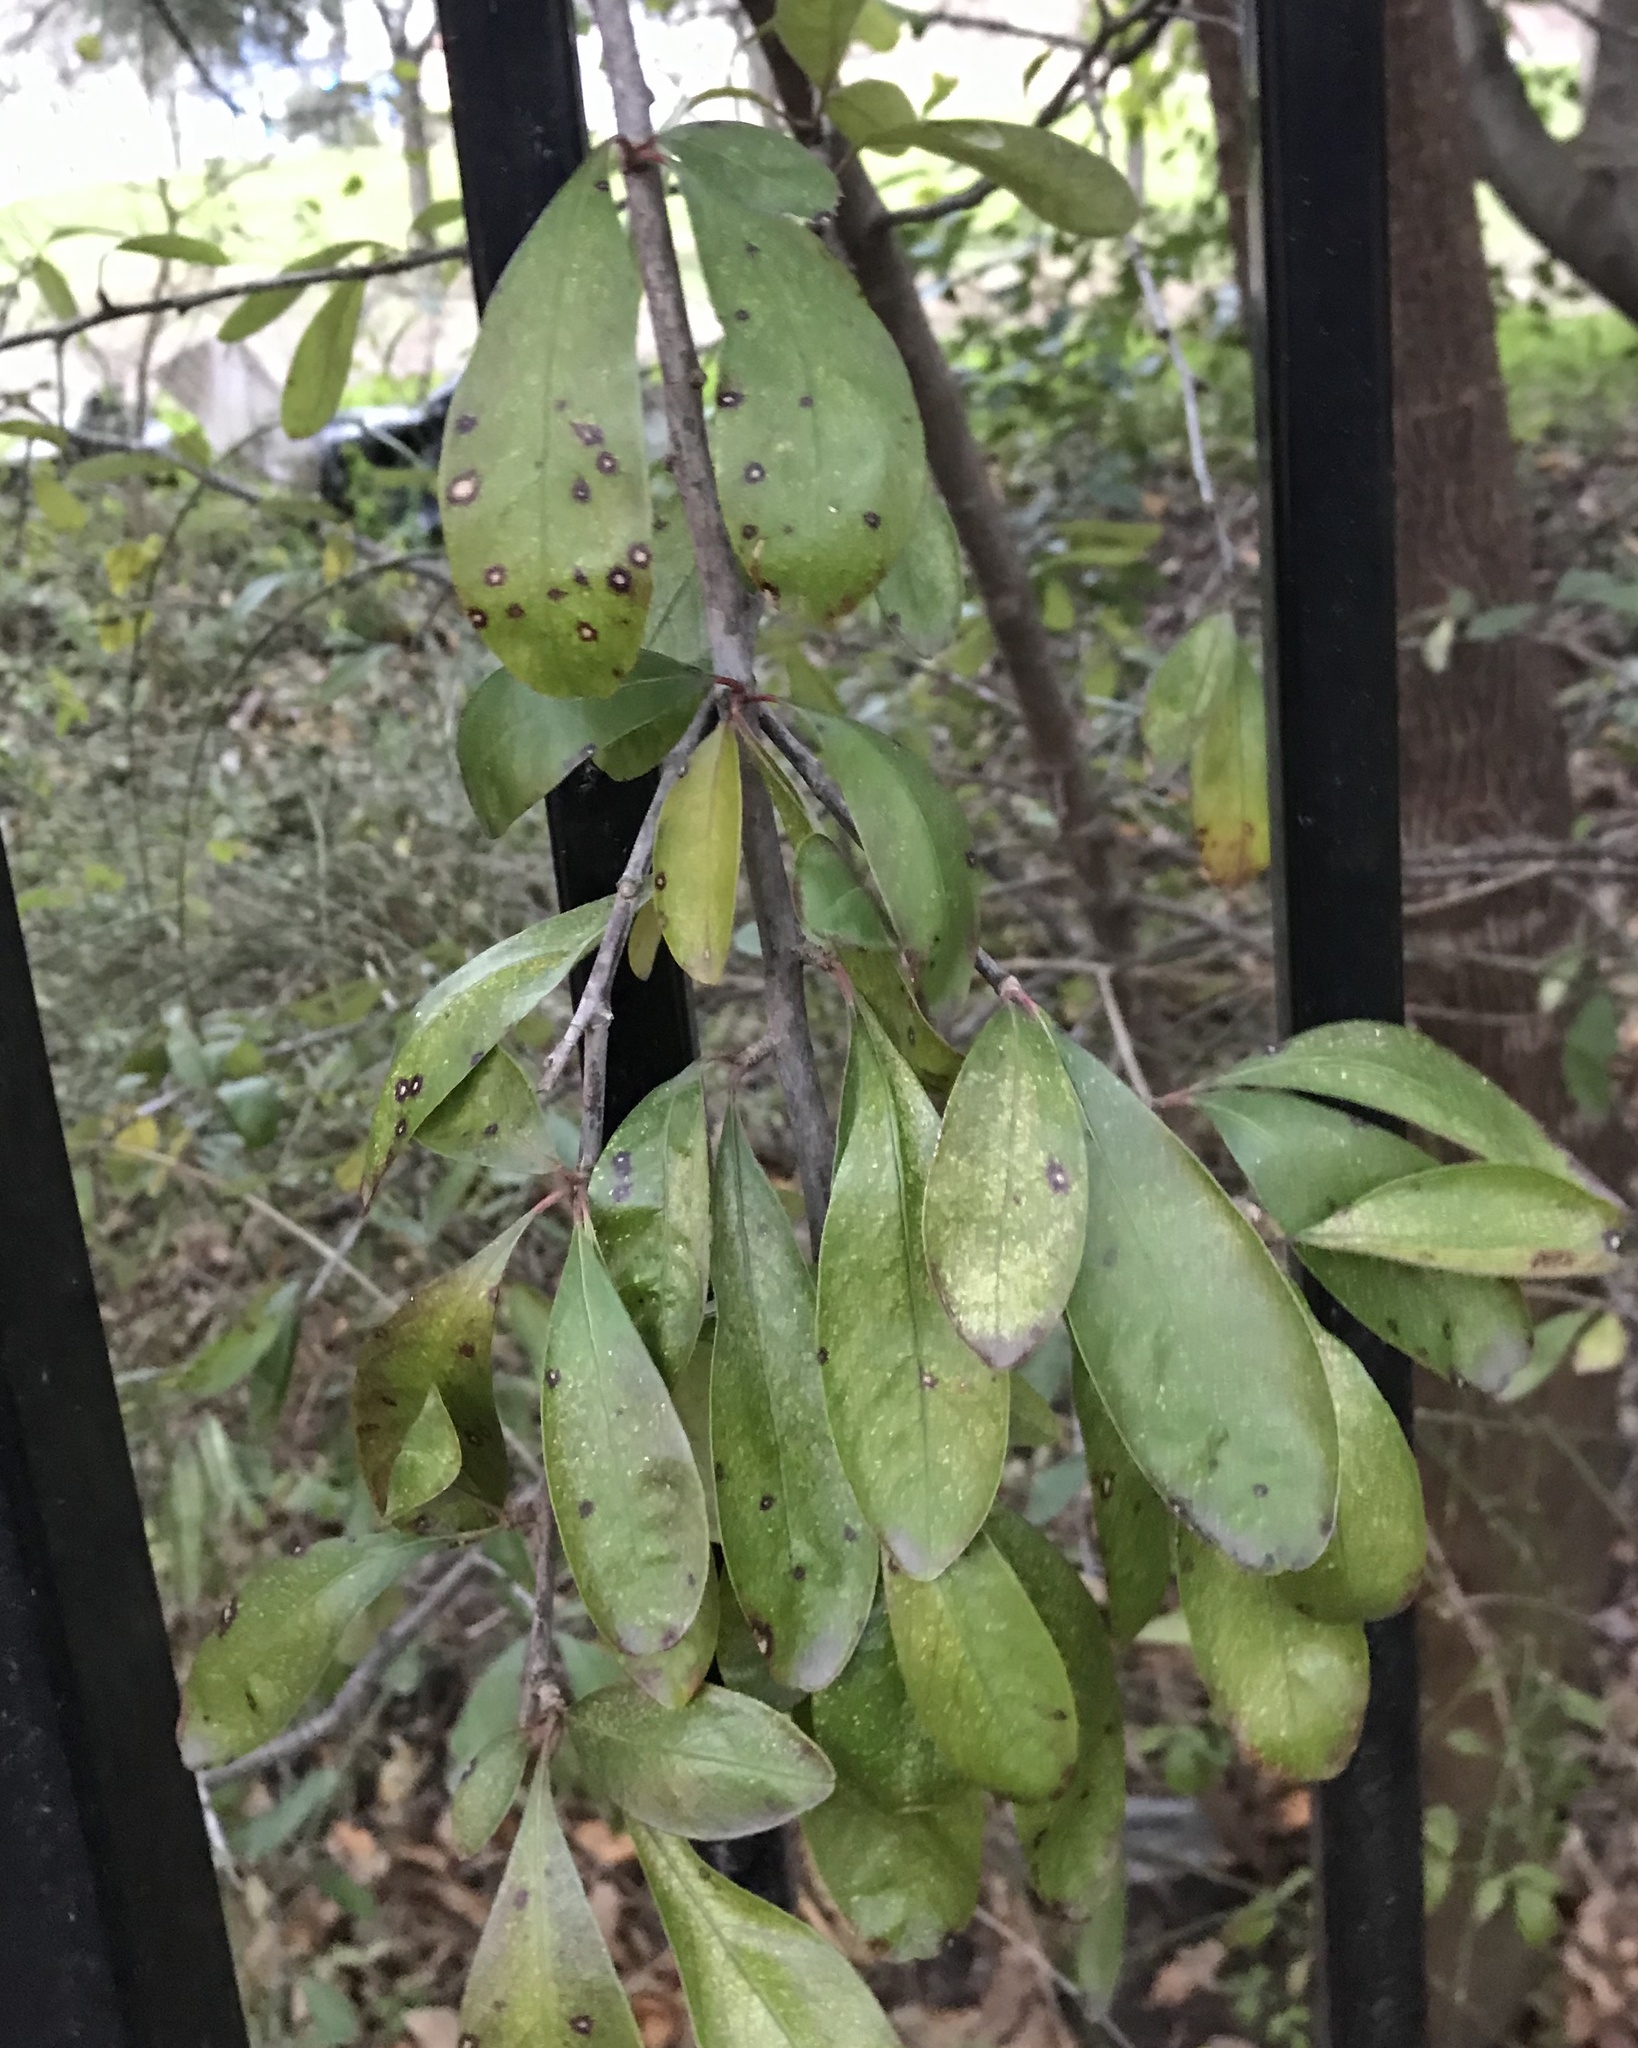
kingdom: Plantae
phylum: Tracheophyta
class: Magnoliopsida
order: Ericales
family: Sapotaceae
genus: Sideroxylon
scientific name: Sideroxylon lanuginosum
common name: Chittamwood
